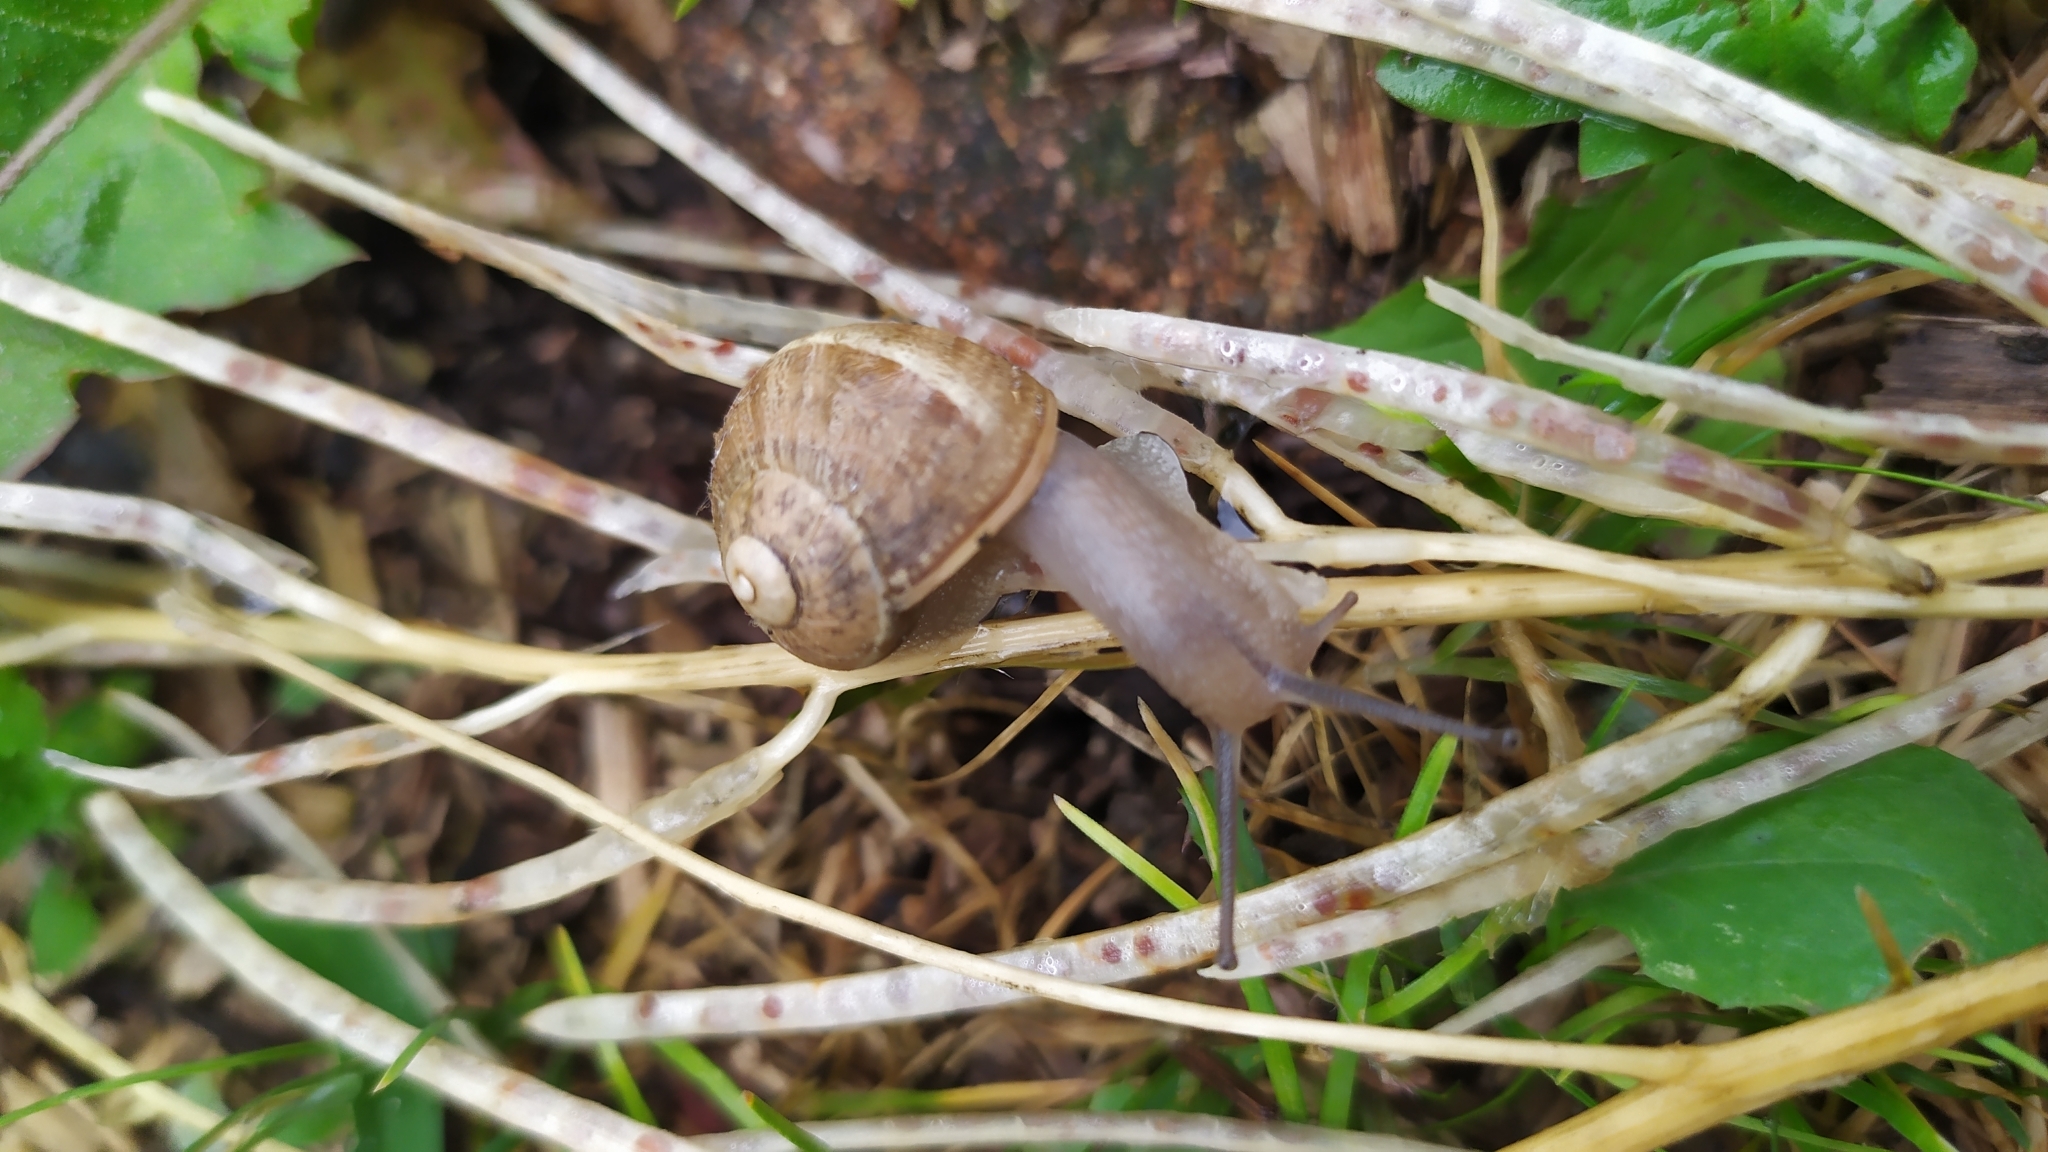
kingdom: Animalia
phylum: Mollusca
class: Gastropoda
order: Stylommatophora
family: Helicidae
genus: Cornu
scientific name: Cornu aspersum
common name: Brown garden snail
